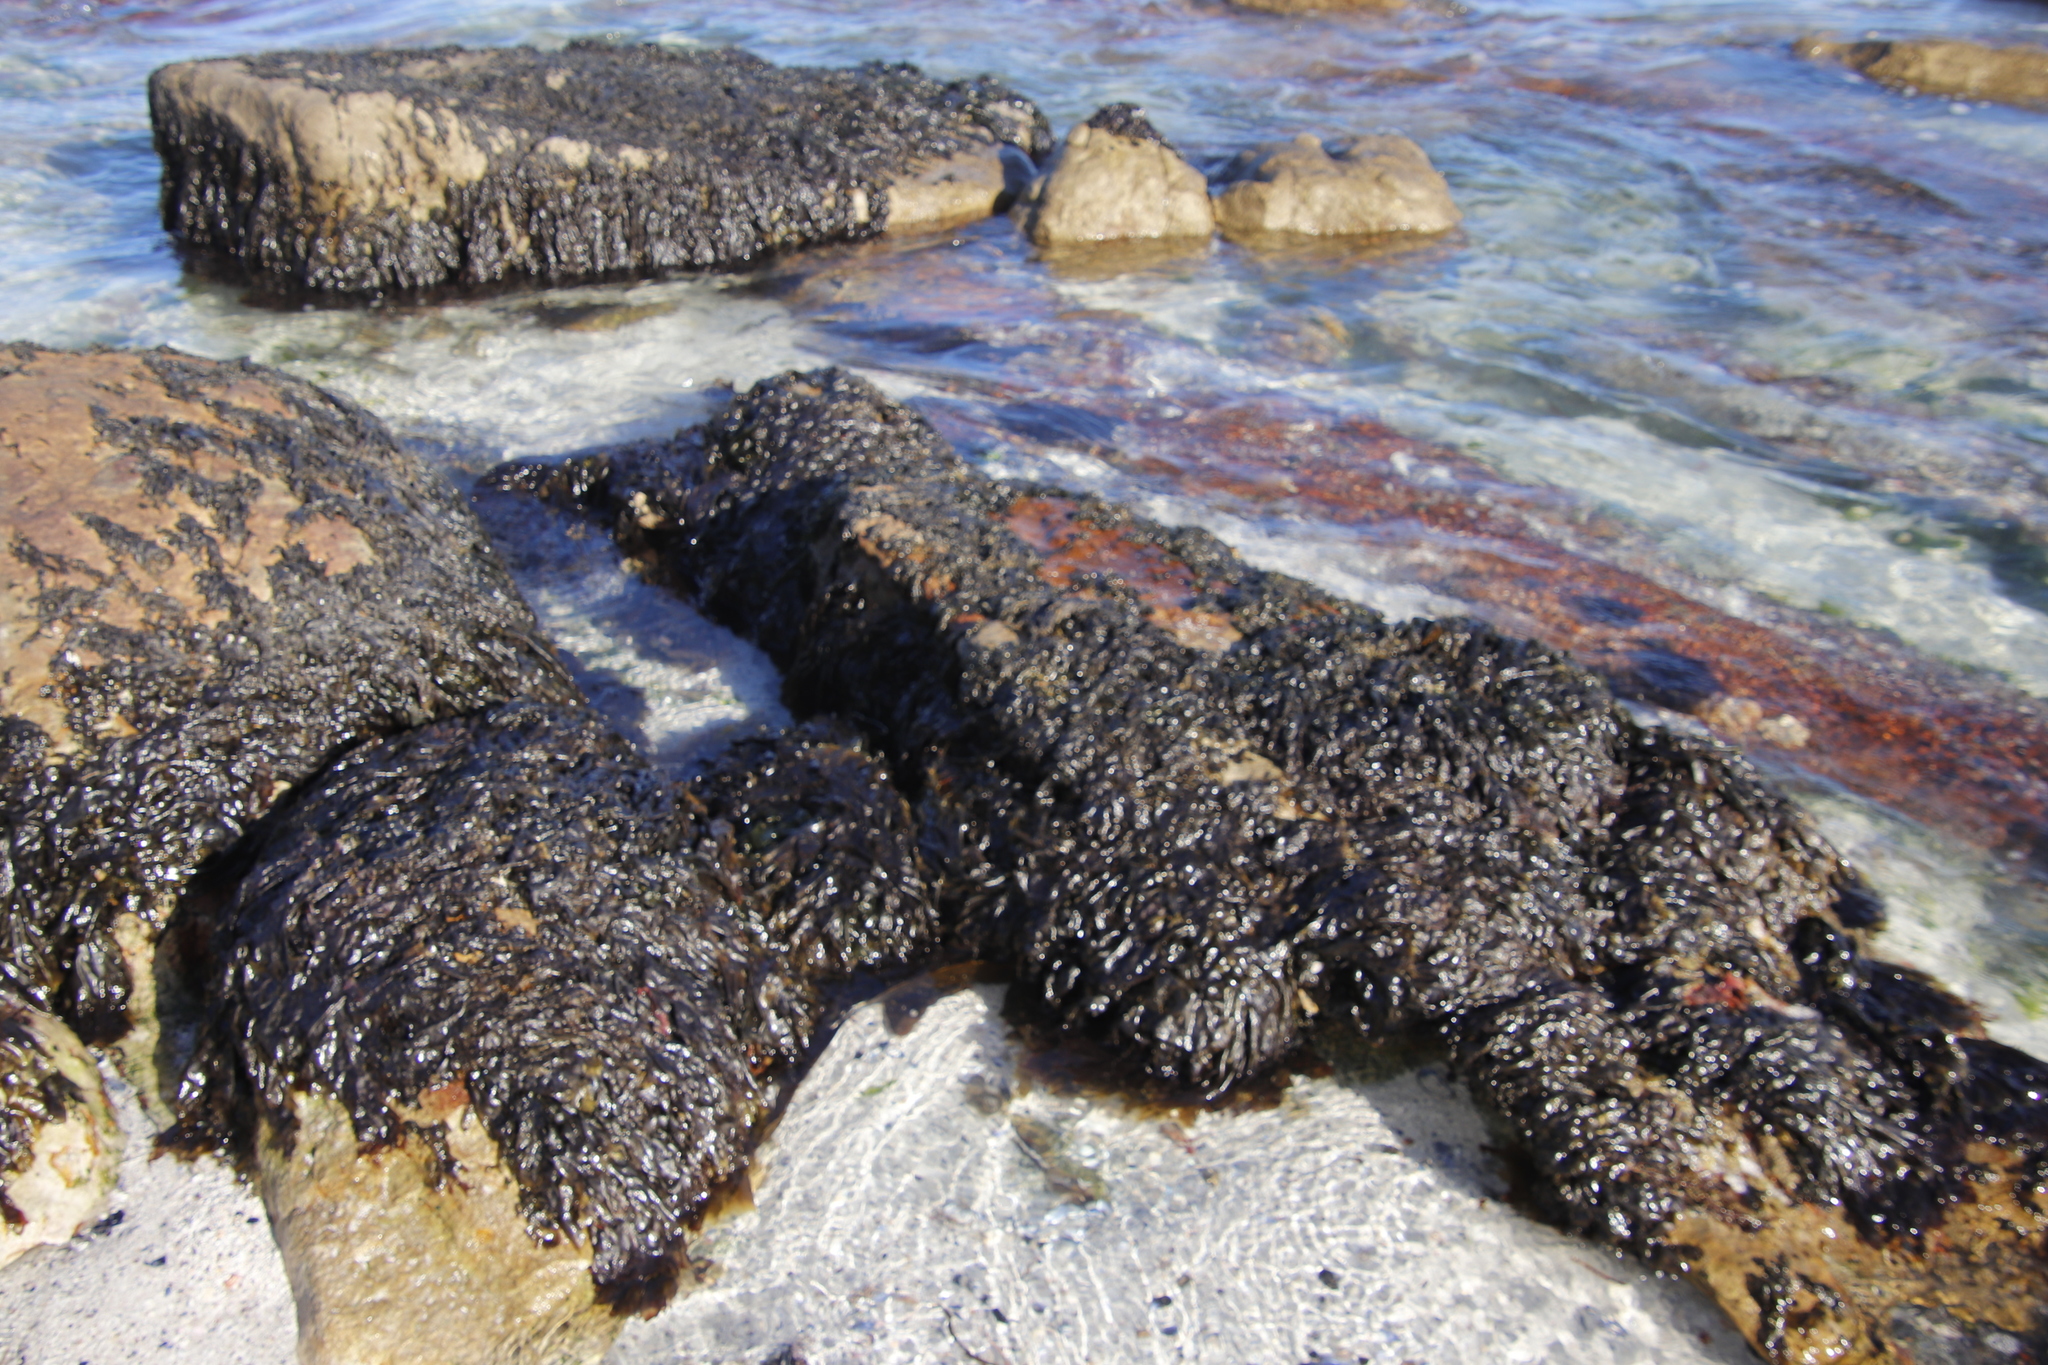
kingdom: Plantae
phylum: Rhodophyta
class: Bangiophyceae
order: Bangiales
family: Bangiaceae
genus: Porphyra
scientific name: Porphyra capensis
